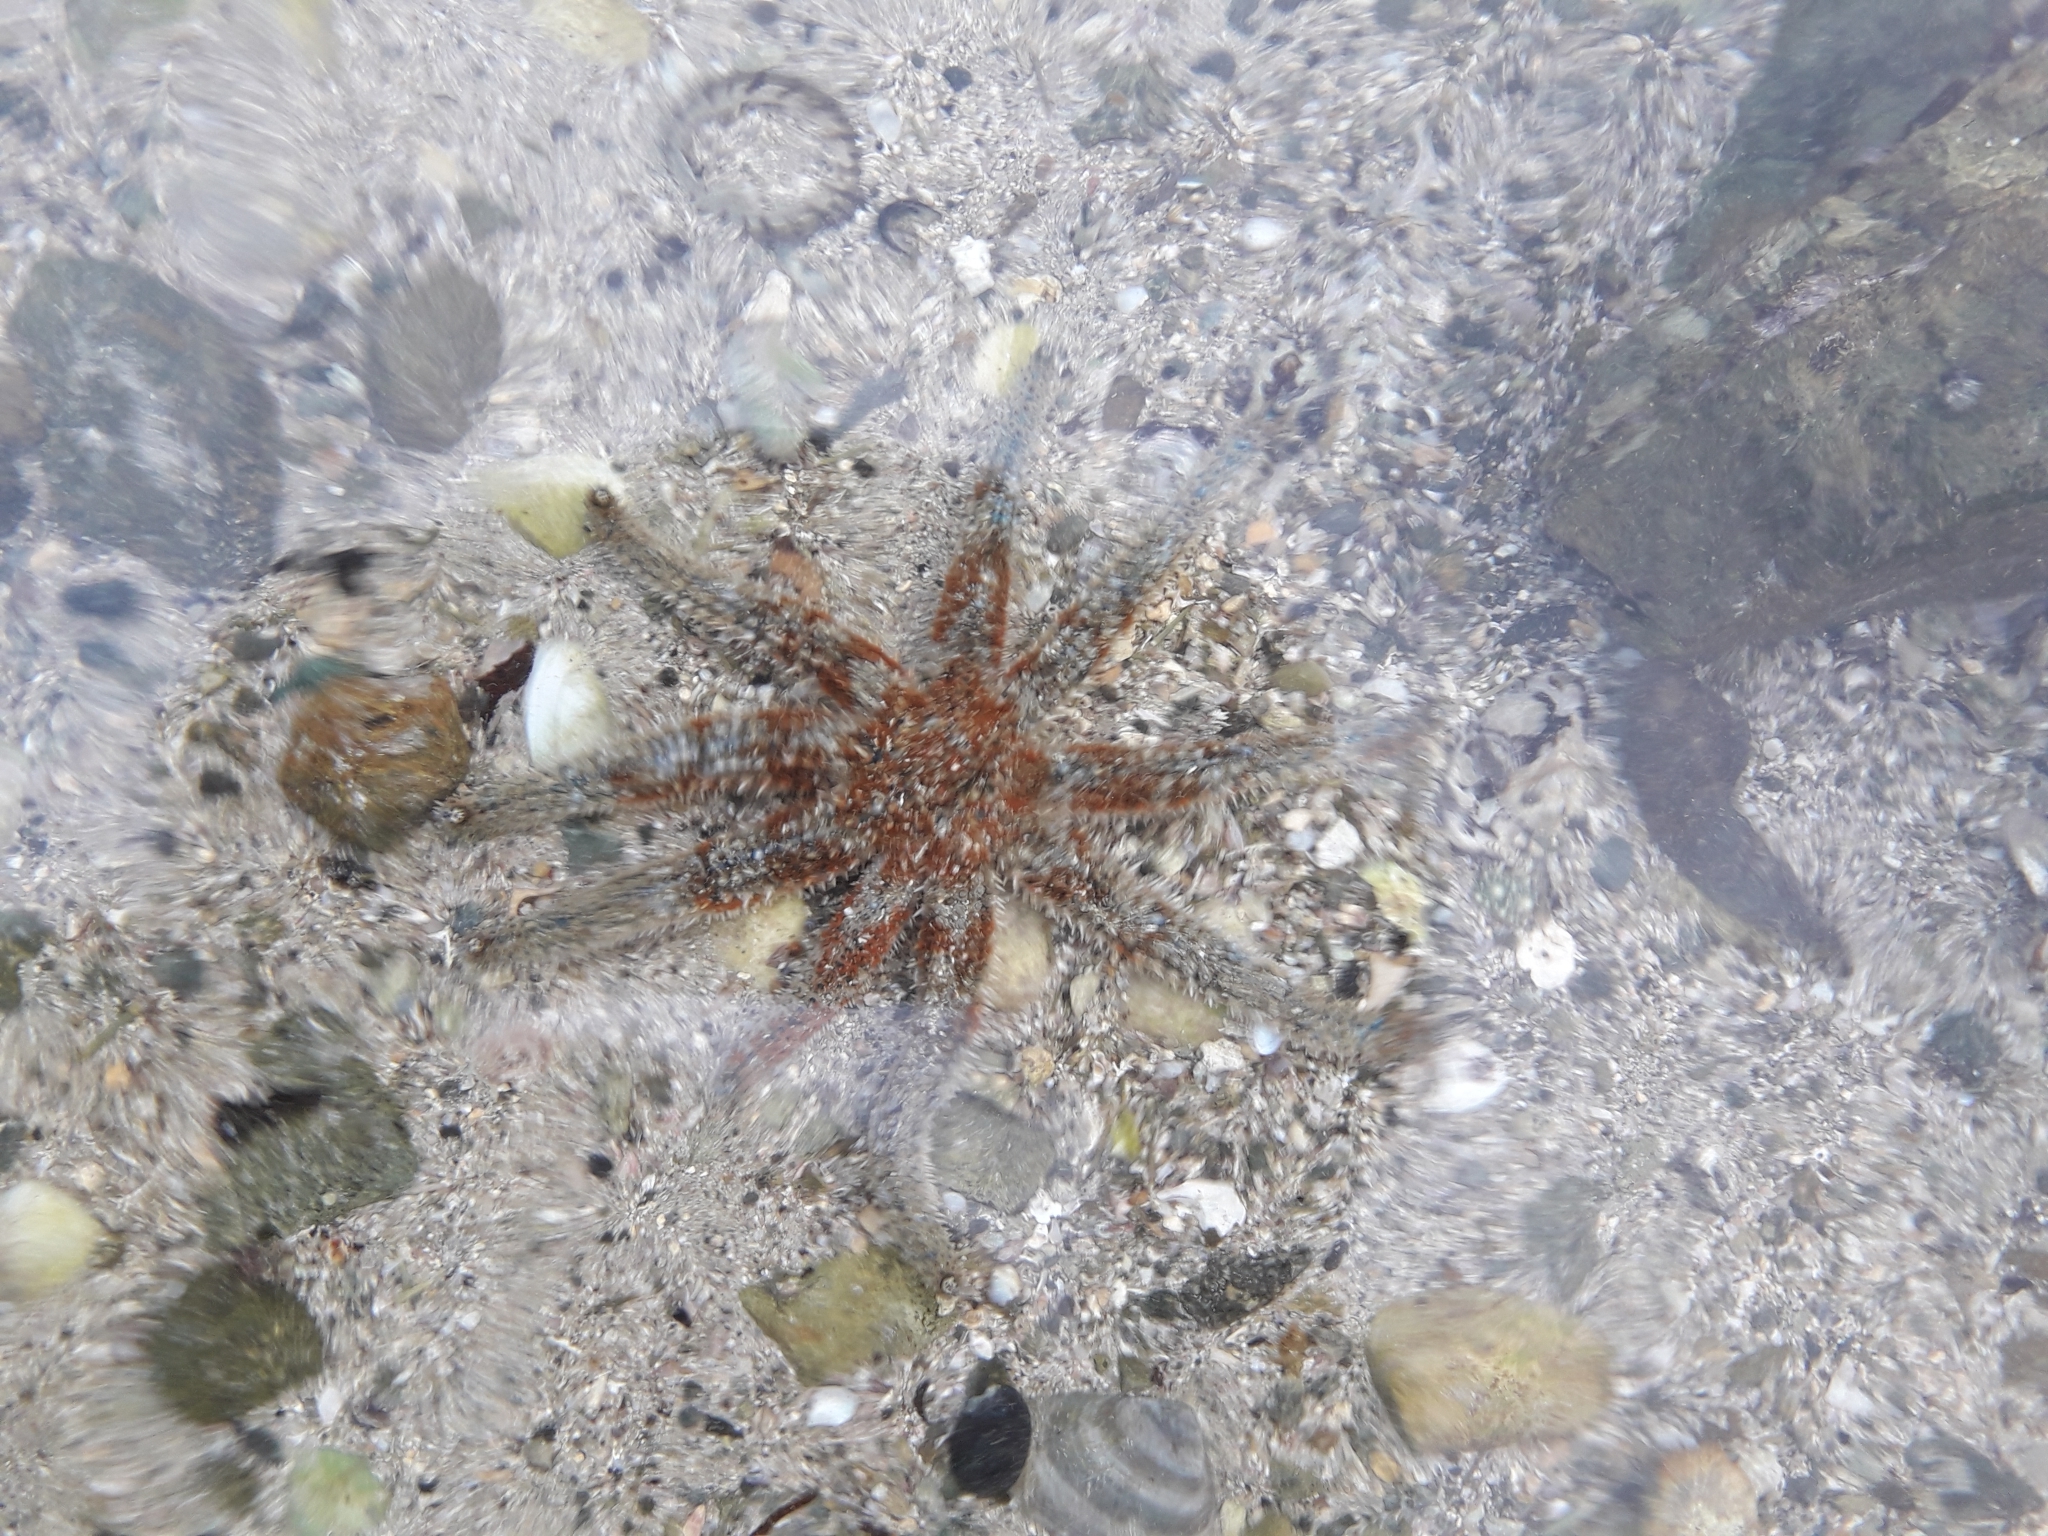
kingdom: Animalia
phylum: Echinodermata
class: Asteroidea
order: Forcipulatida
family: Asteriidae
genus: Coscinasterias
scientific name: Coscinasterias muricata
